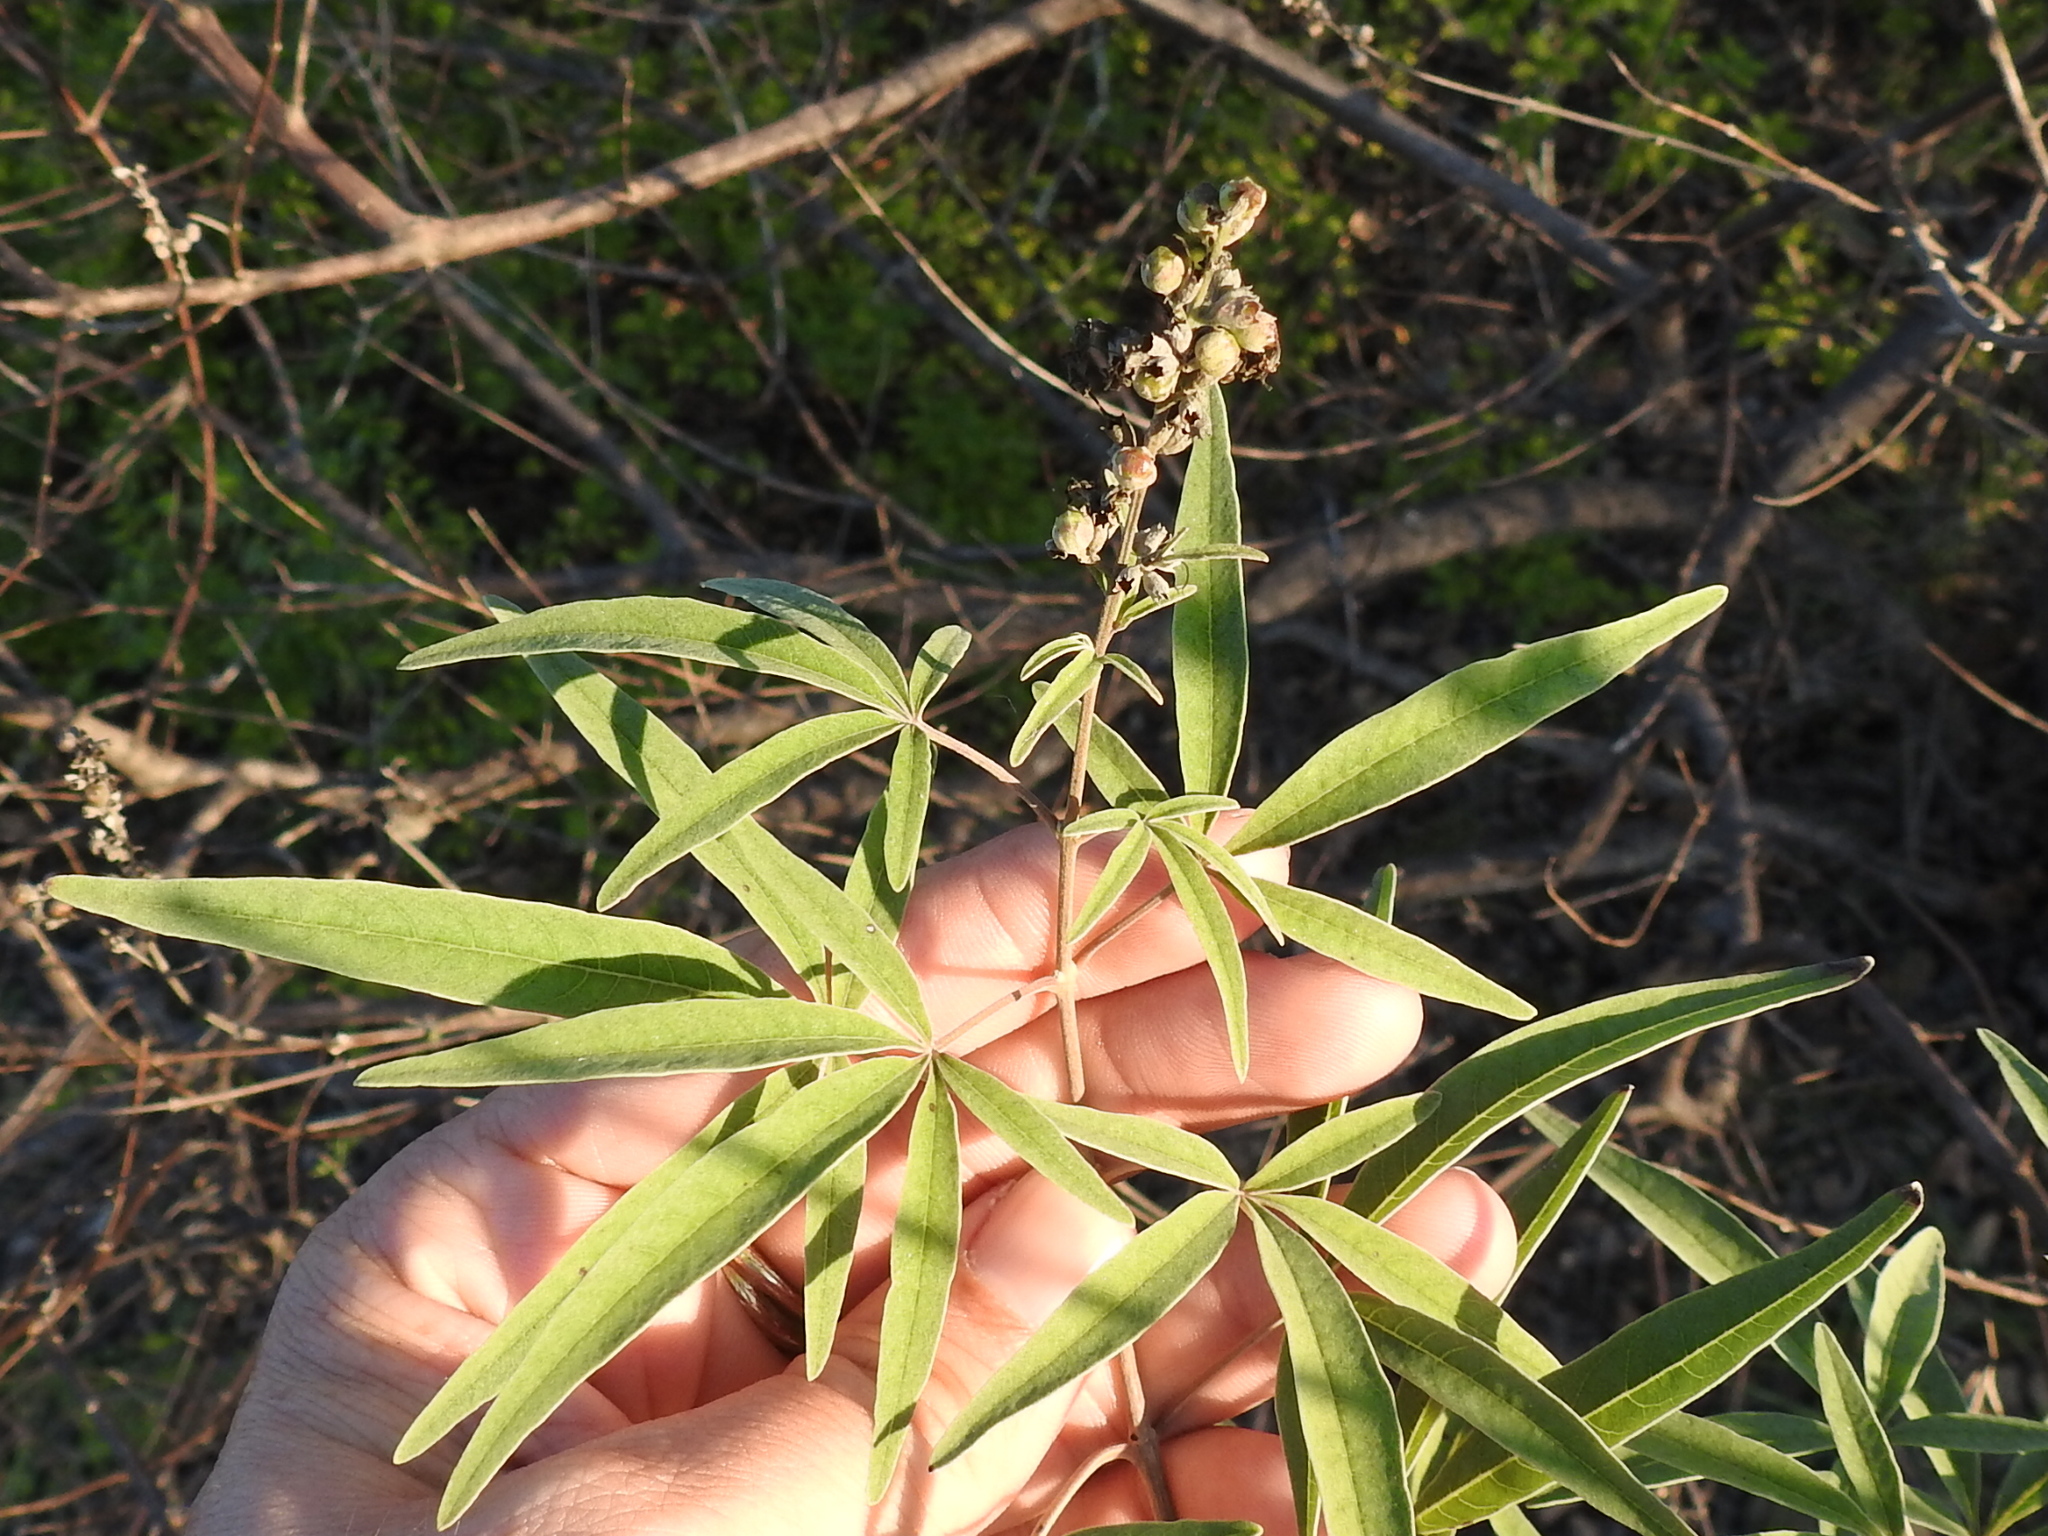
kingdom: Plantae
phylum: Tracheophyta
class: Magnoliopsida
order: Lamiales
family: Lamiaceae
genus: Vitex
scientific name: Vitex agnus-castus
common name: Chasteberry
